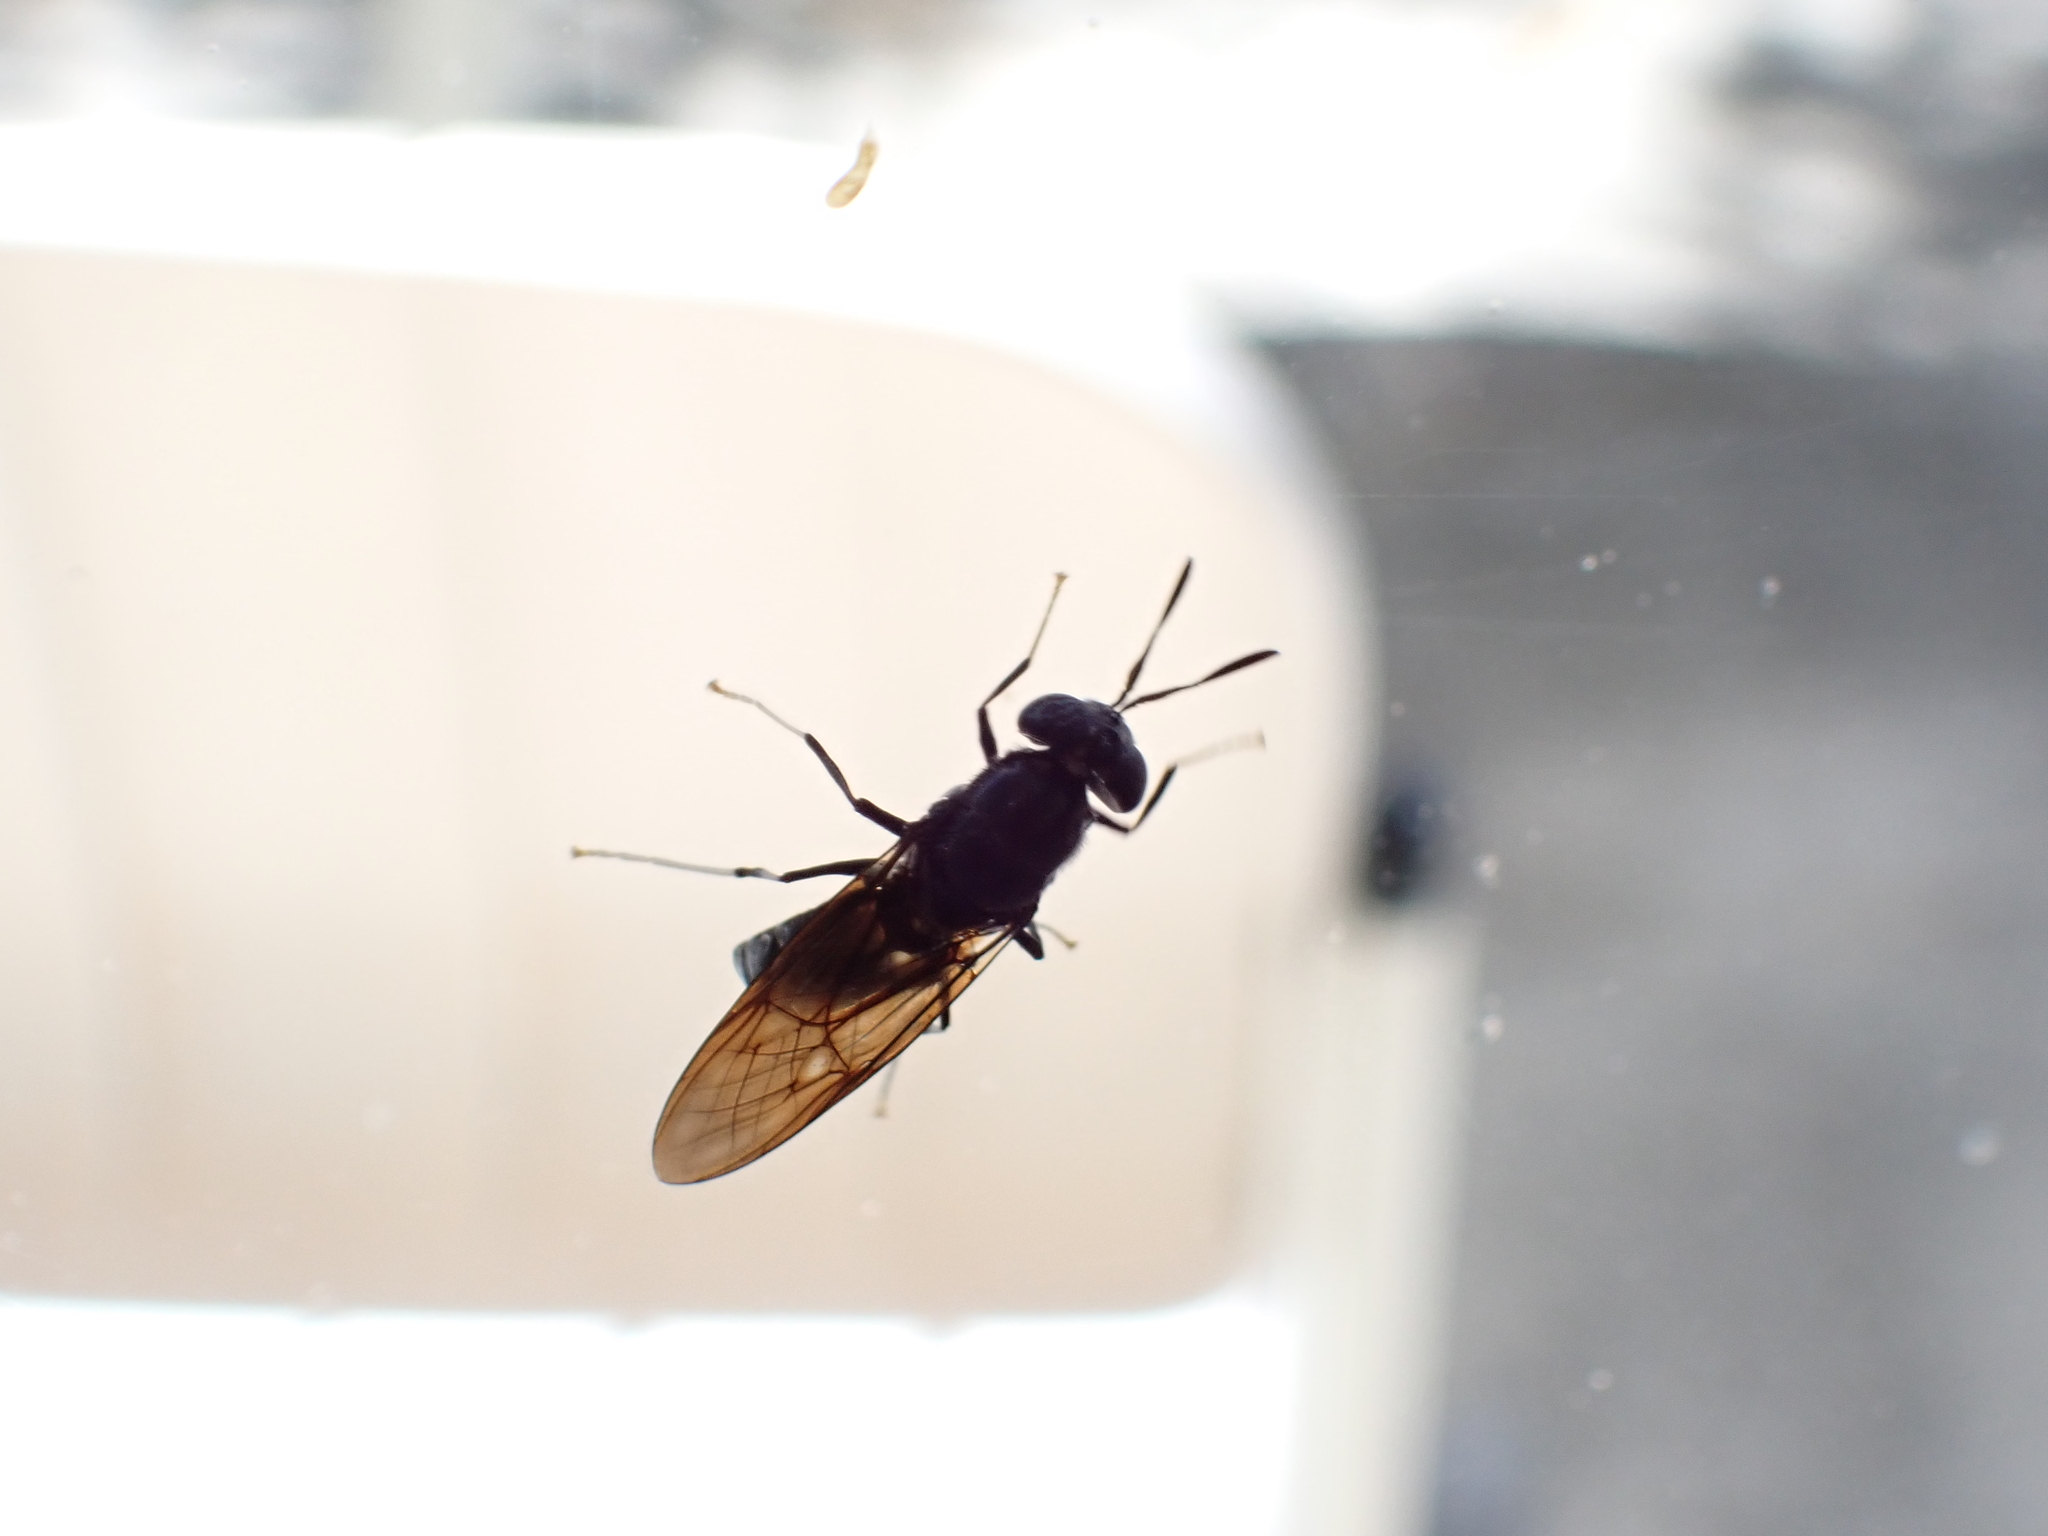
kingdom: Animalia
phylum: Arthropoda
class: Insecta
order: Diptera
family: Stratiomyidae
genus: Hermetia
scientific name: Hermetia illucens
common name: Black soldier fly
